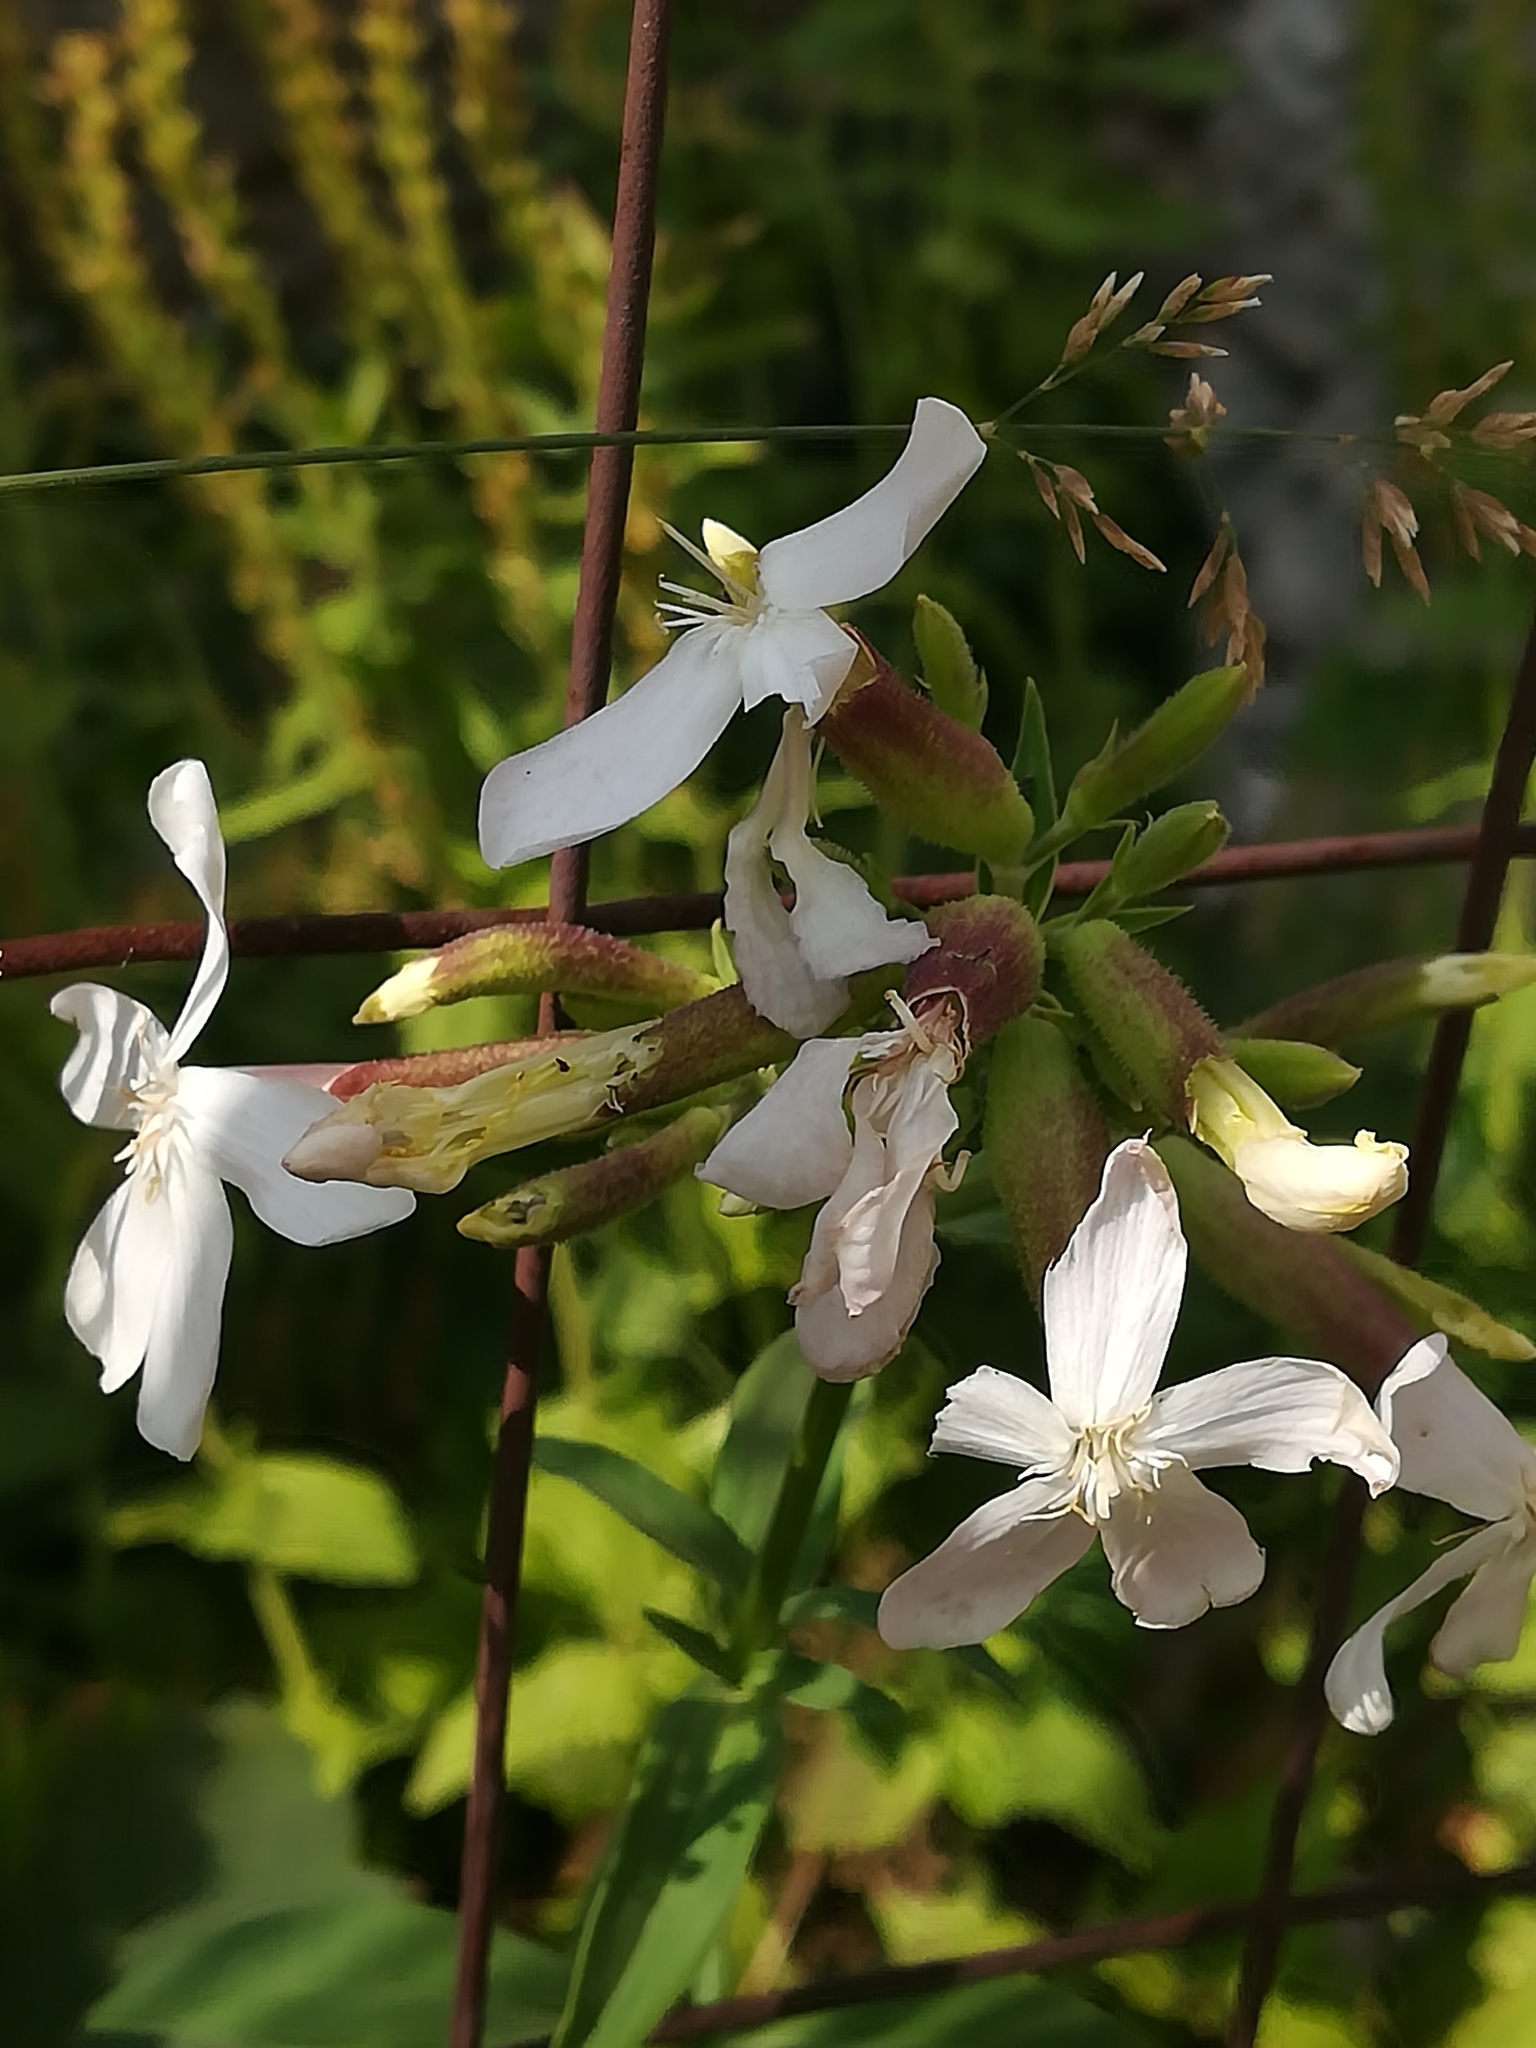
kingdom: Plantae
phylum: Tracheophyta
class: Magnoliopsida
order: Caryophyllales
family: Caryophyllaceae
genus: Saponaria
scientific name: Saponaria officinalis
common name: Soapwort
